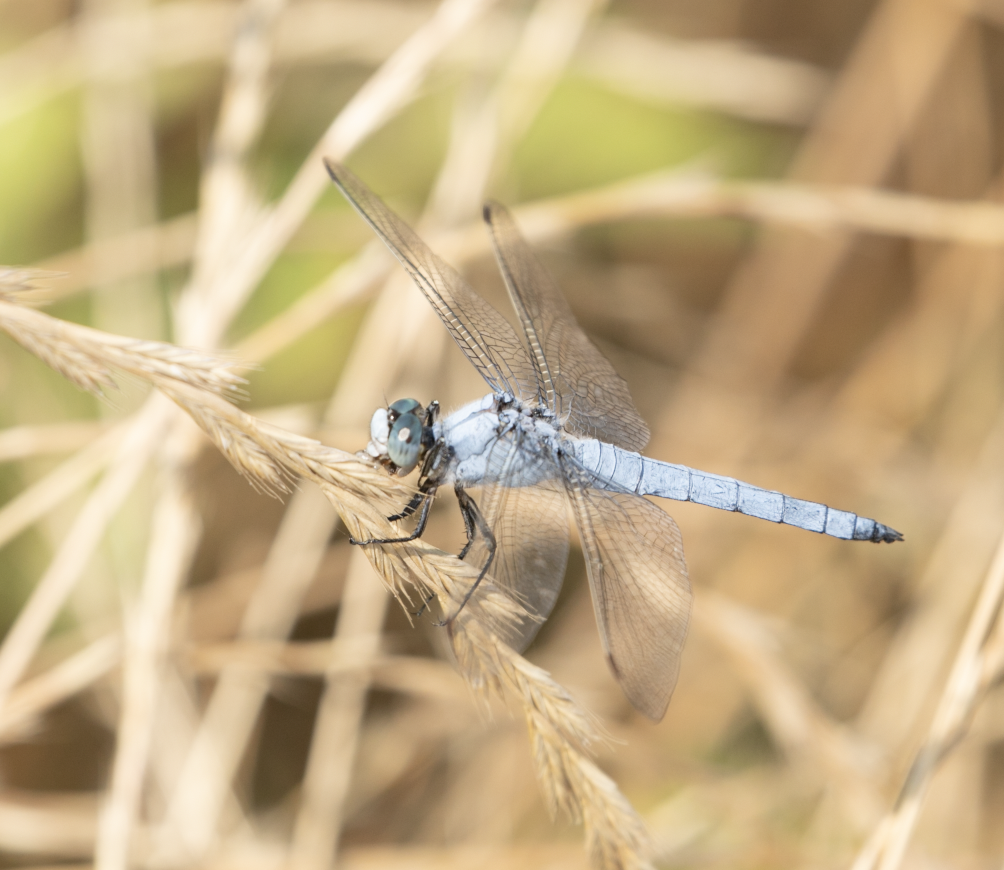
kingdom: Animalia
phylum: Arthropoda
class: Insecta
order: Odonata
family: Libellulidae
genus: Orthetrum
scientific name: Orthetrum brunneum
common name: Southern skimmer
